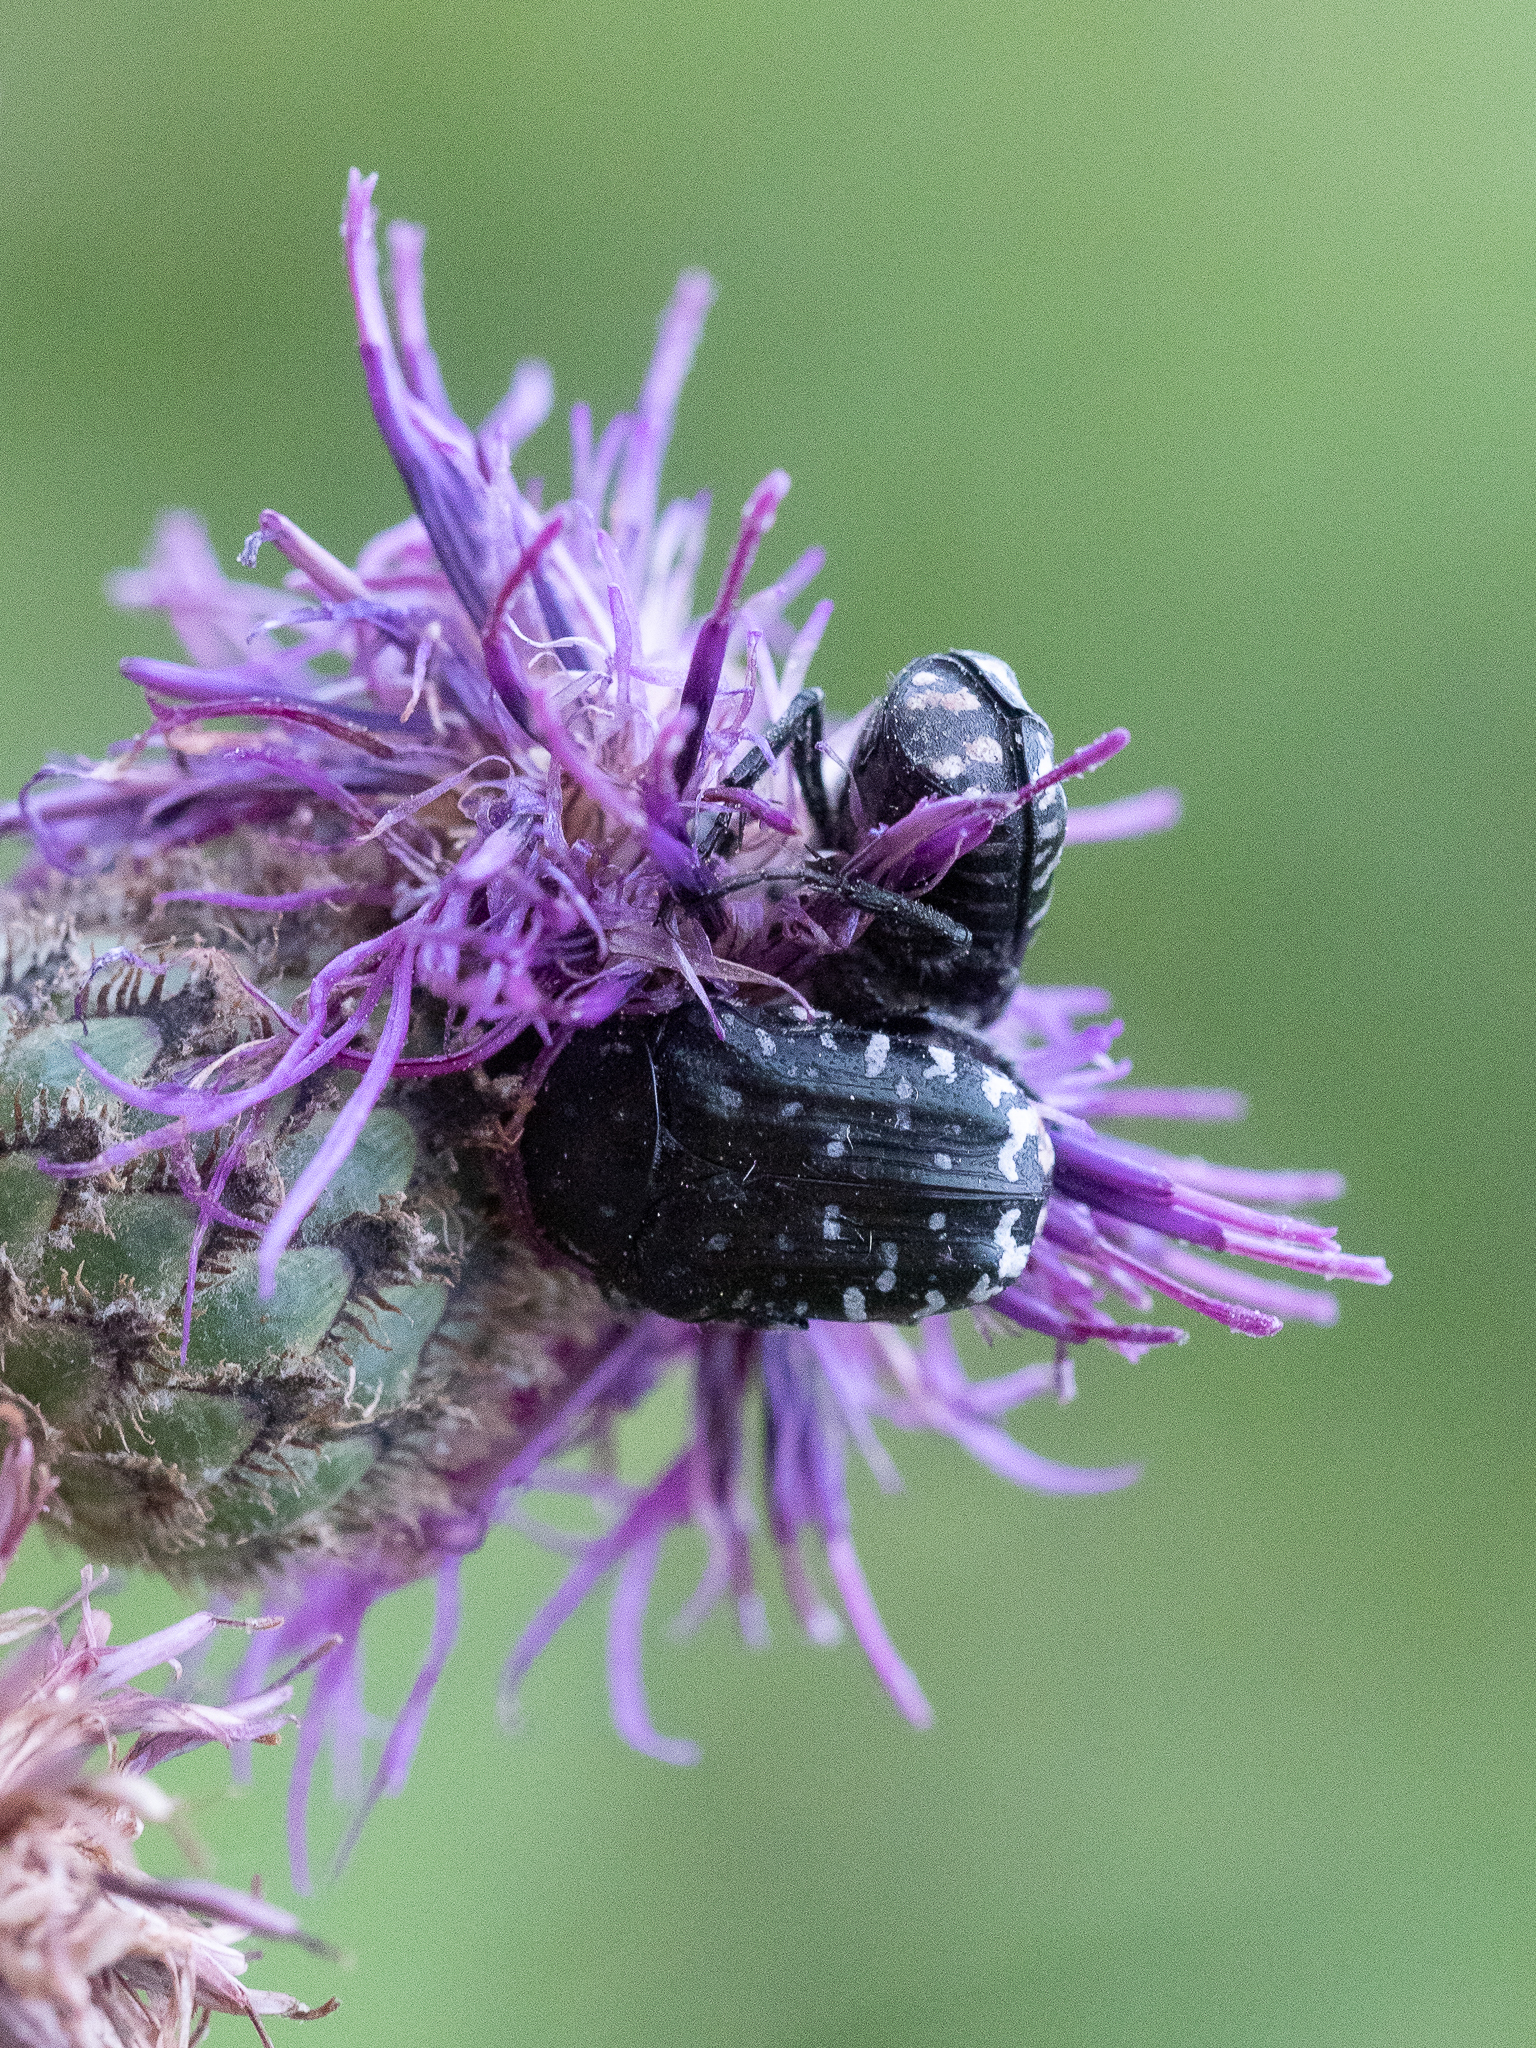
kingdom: Animalia
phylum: Arthropoda
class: Insecta
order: Coleoptera
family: Scarabaeidae
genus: Oxythyrea
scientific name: Oxythyrea funesta
